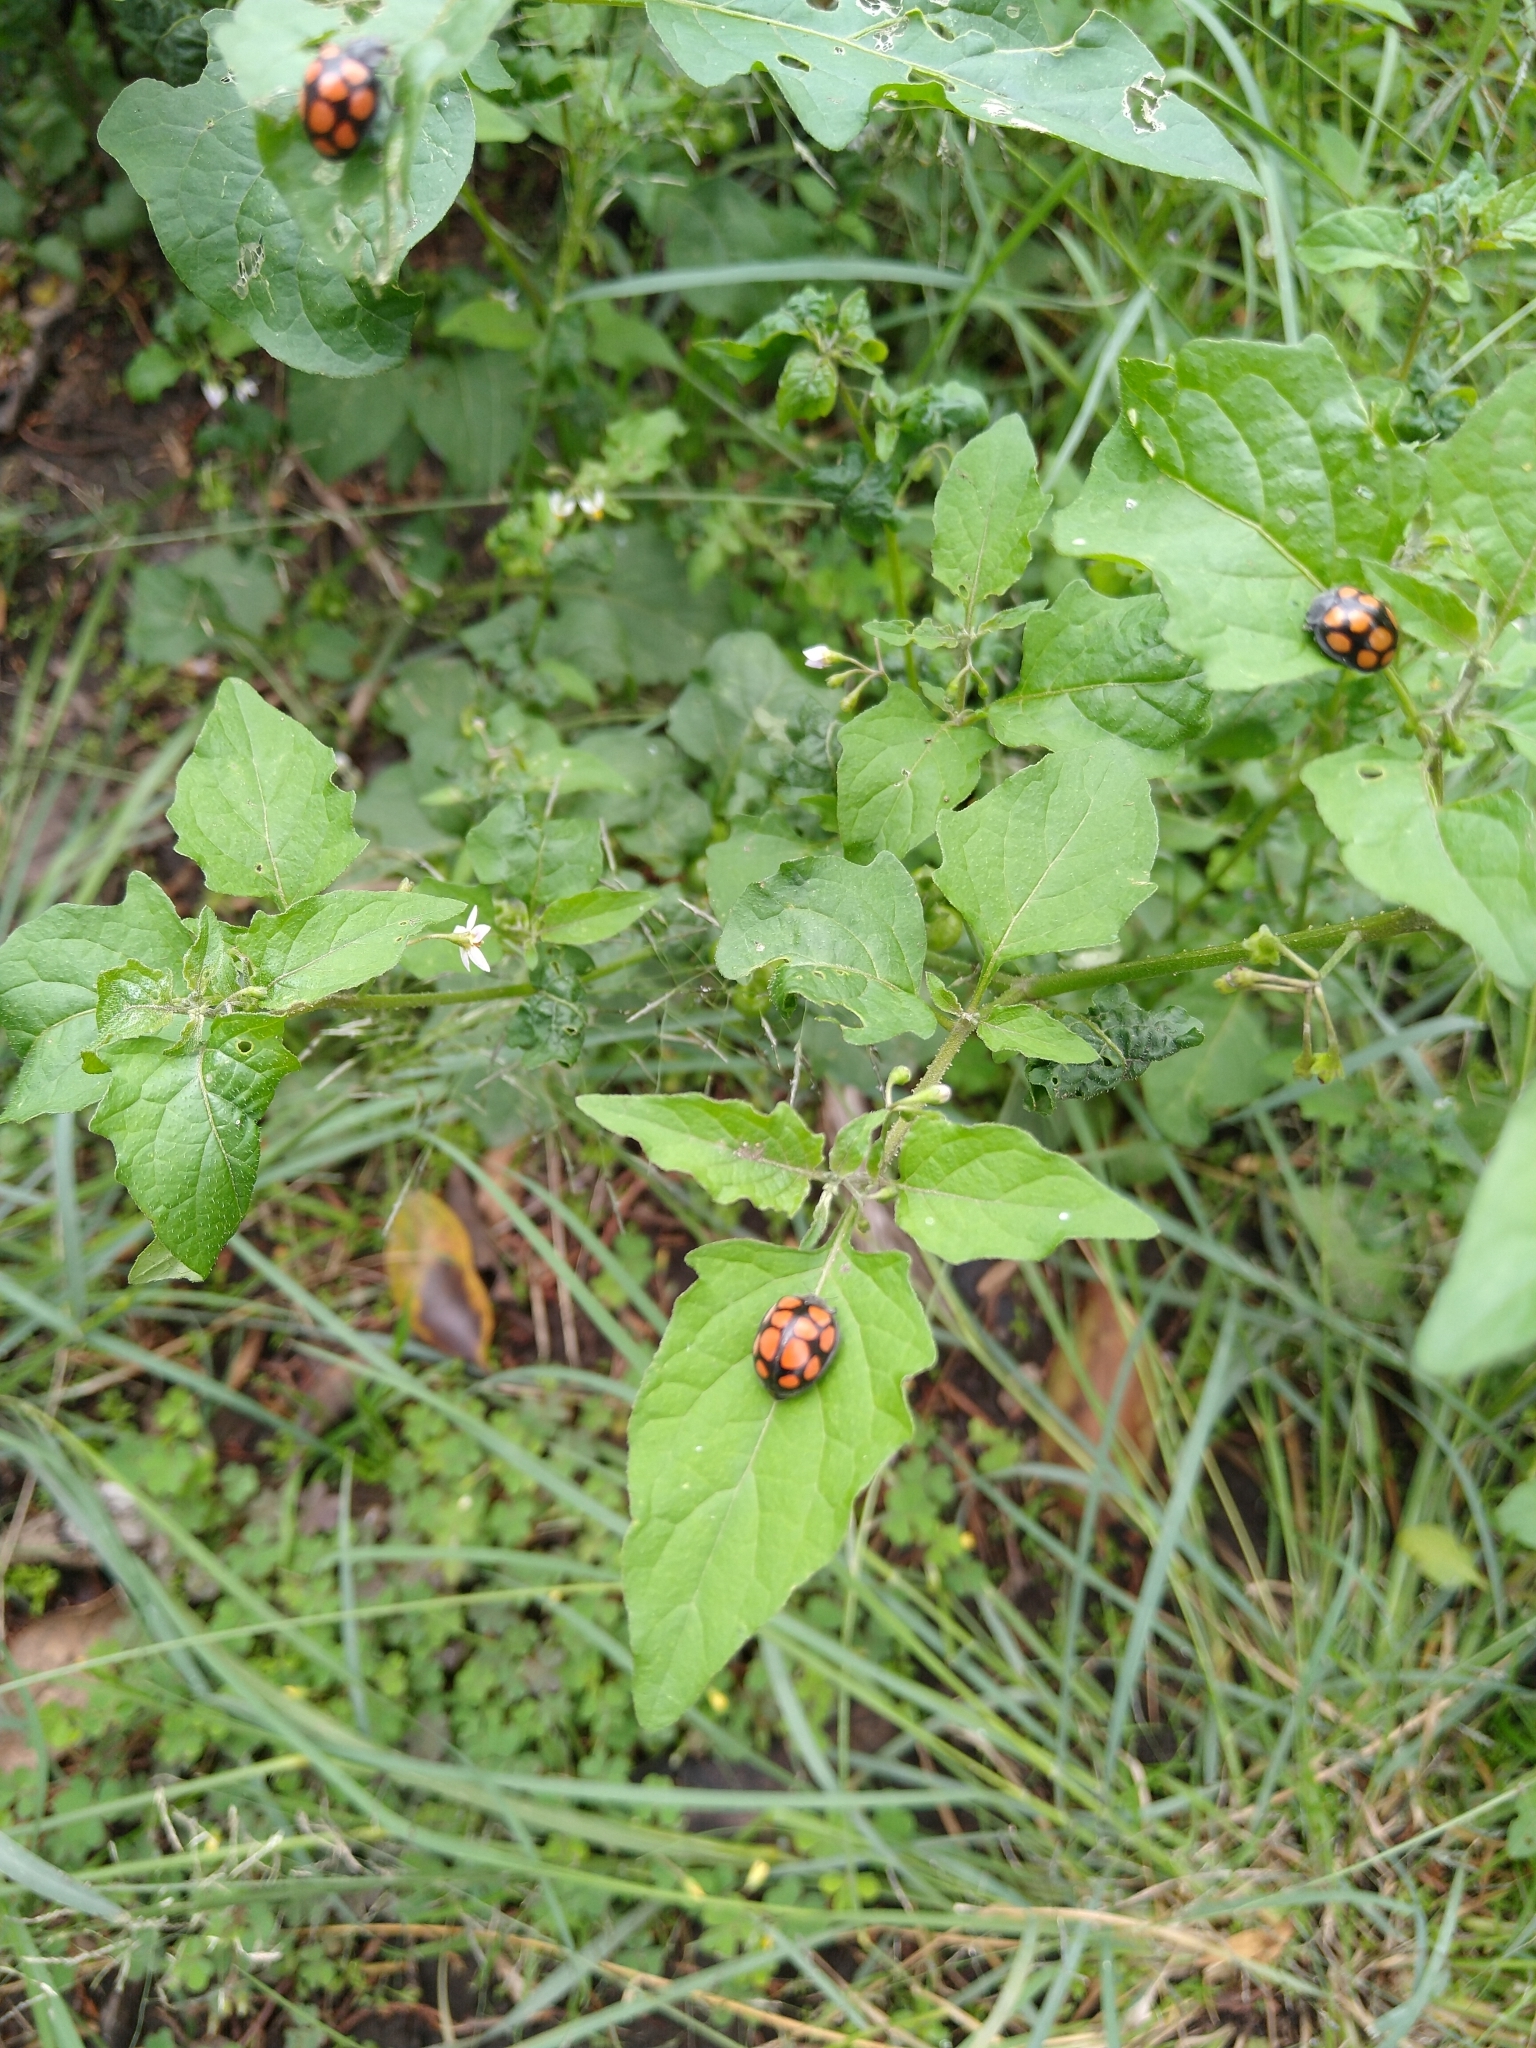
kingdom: Animalia
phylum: Arthropoda
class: Insecta
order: Coleoptera
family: Coccinellidae
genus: Epilachna
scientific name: Epilachna
